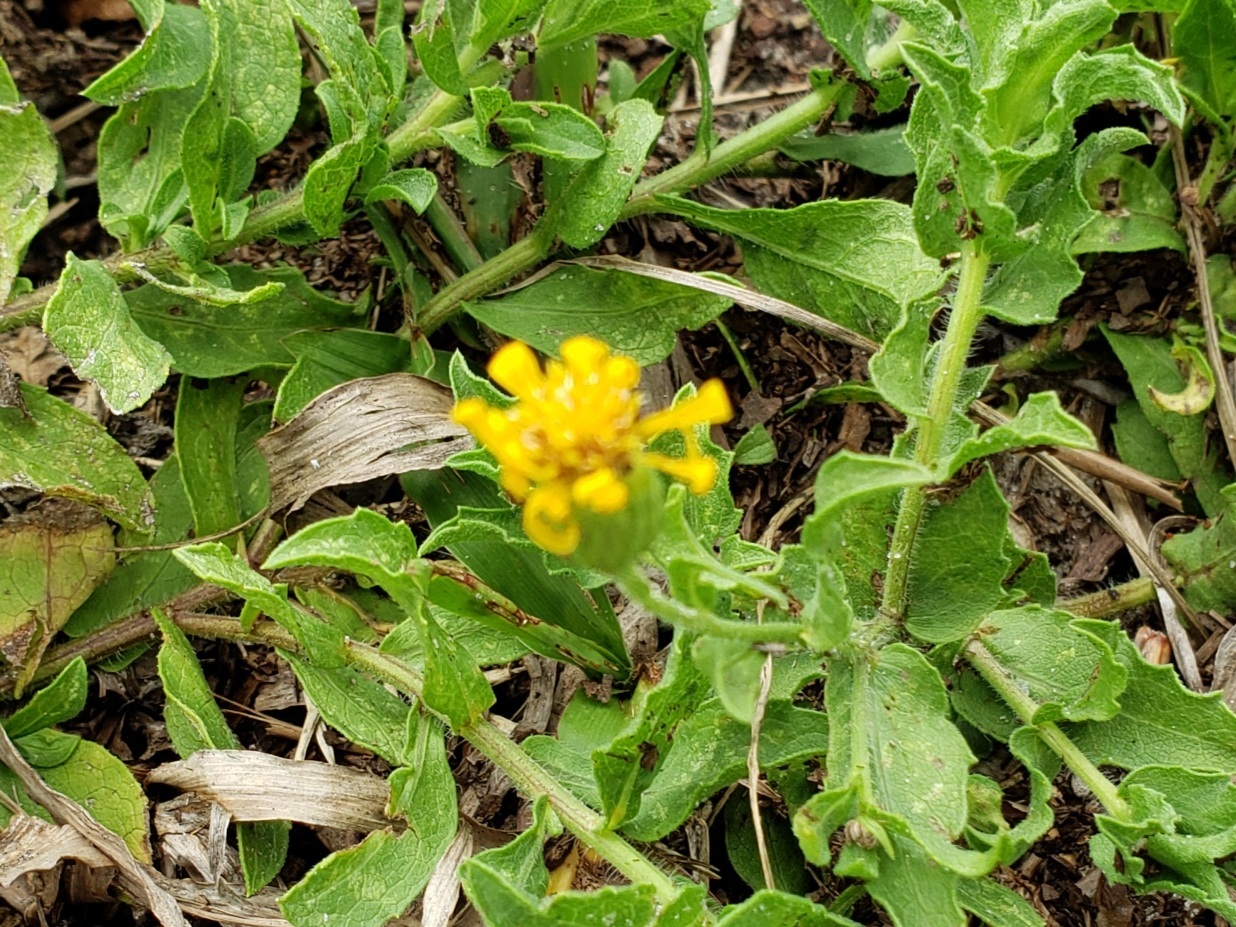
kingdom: Plantae
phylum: Tracheophyta
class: Magnoliopsida
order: Asterales
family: Asteraceae
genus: Heterotheca
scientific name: Heterotheca subaxillaris
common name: Camphorweed
